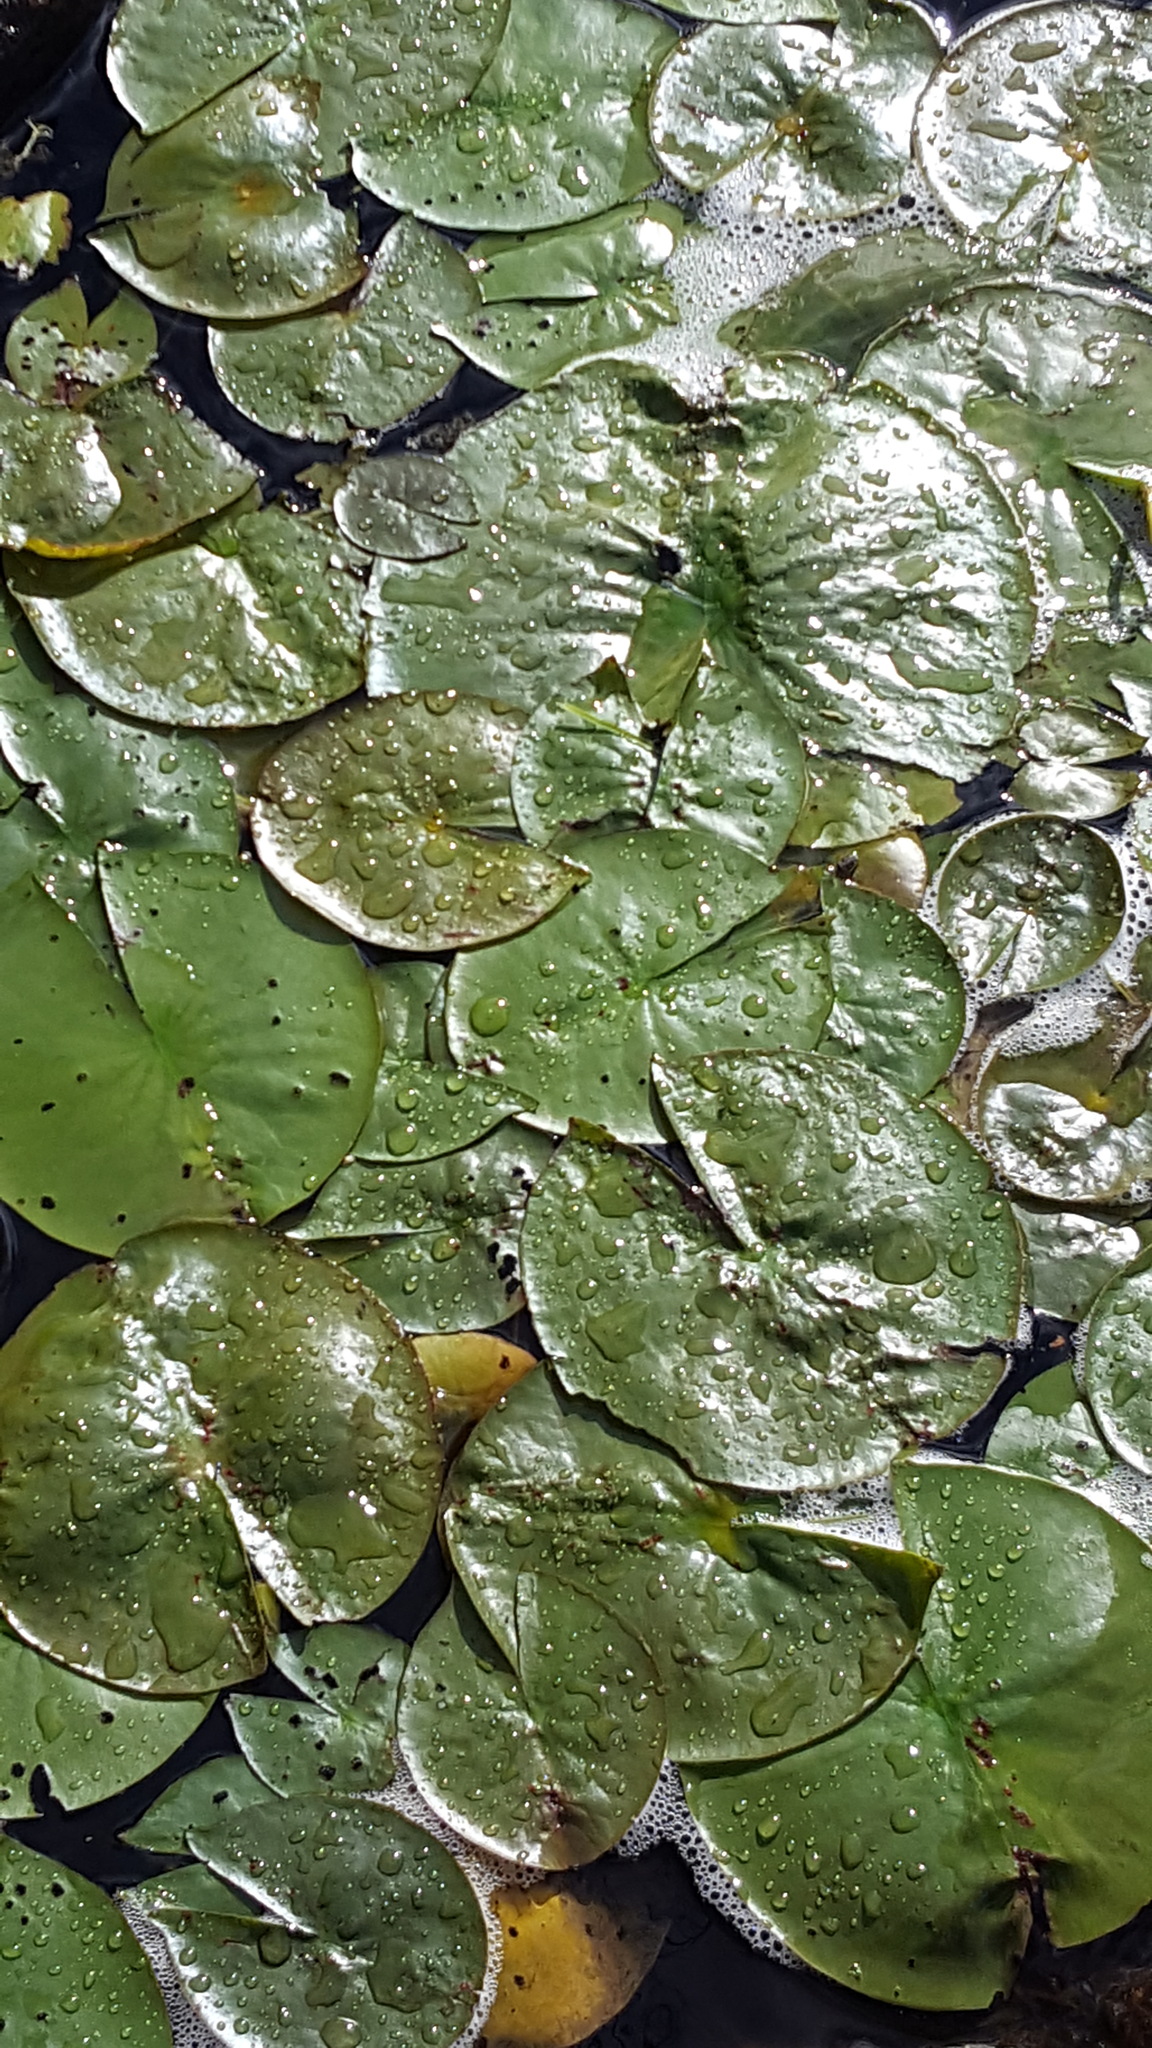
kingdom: Plantae
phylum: Tracheophyta
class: Magnoliopsida
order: Nymphaeales
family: Nymphaeaceae
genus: Nymphaea
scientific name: Nymphaea odorata
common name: Fragrant water-lily
